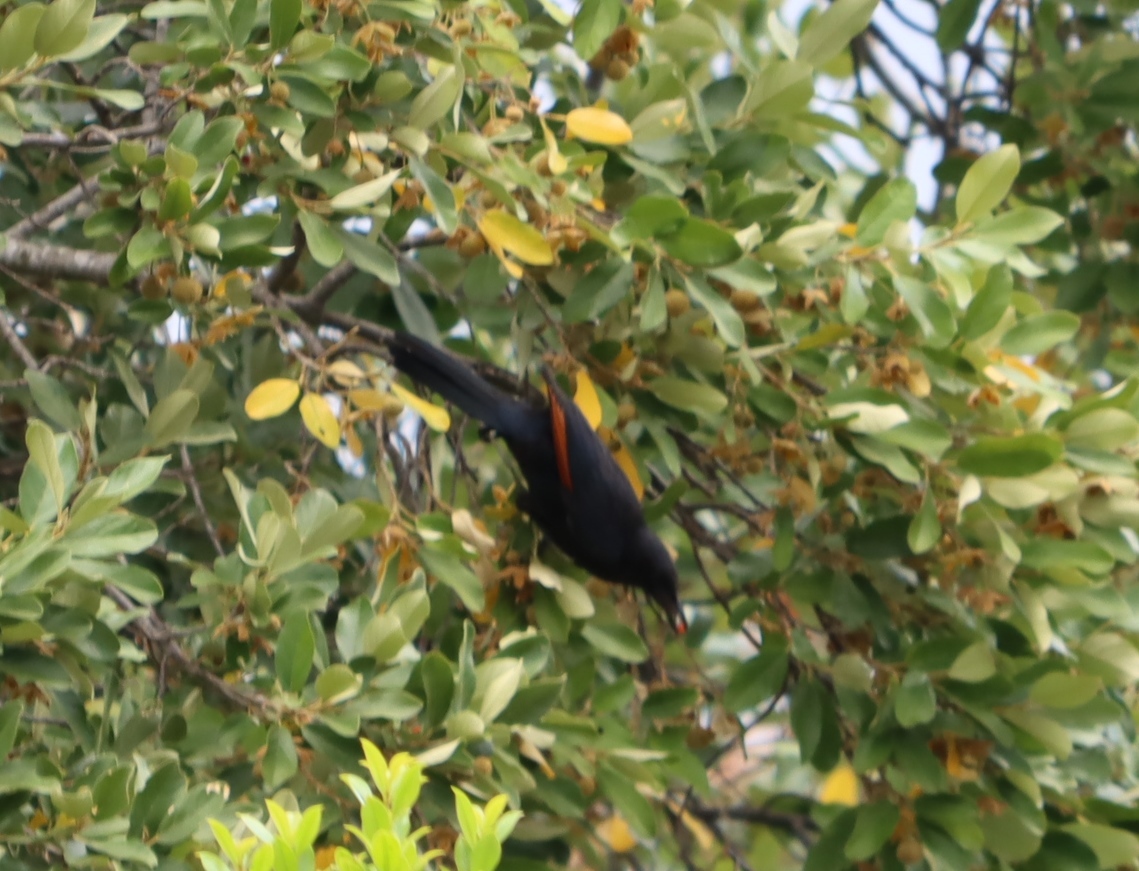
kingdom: Animalia
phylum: Chordata
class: Aves
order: Passeriformes
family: Sturnidae
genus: Onychognathus
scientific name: Onychognathus morio
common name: Red-winged starling
